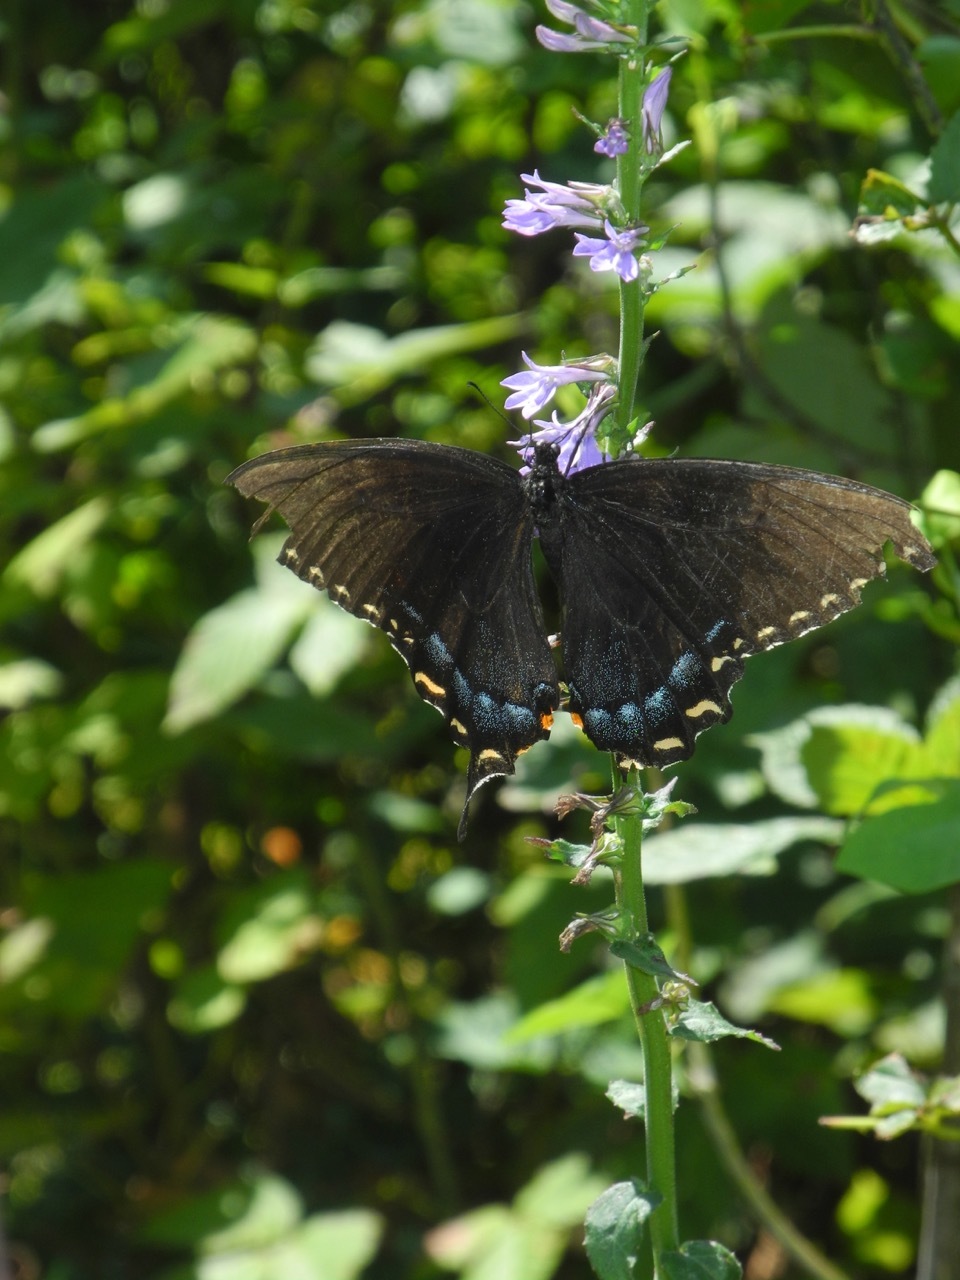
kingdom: Animalia
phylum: Arthropoda
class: Insecta
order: Lepidoptera
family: Papilionidae
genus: Papilio
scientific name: Papilio glaucus
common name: Tiger swallowtail
